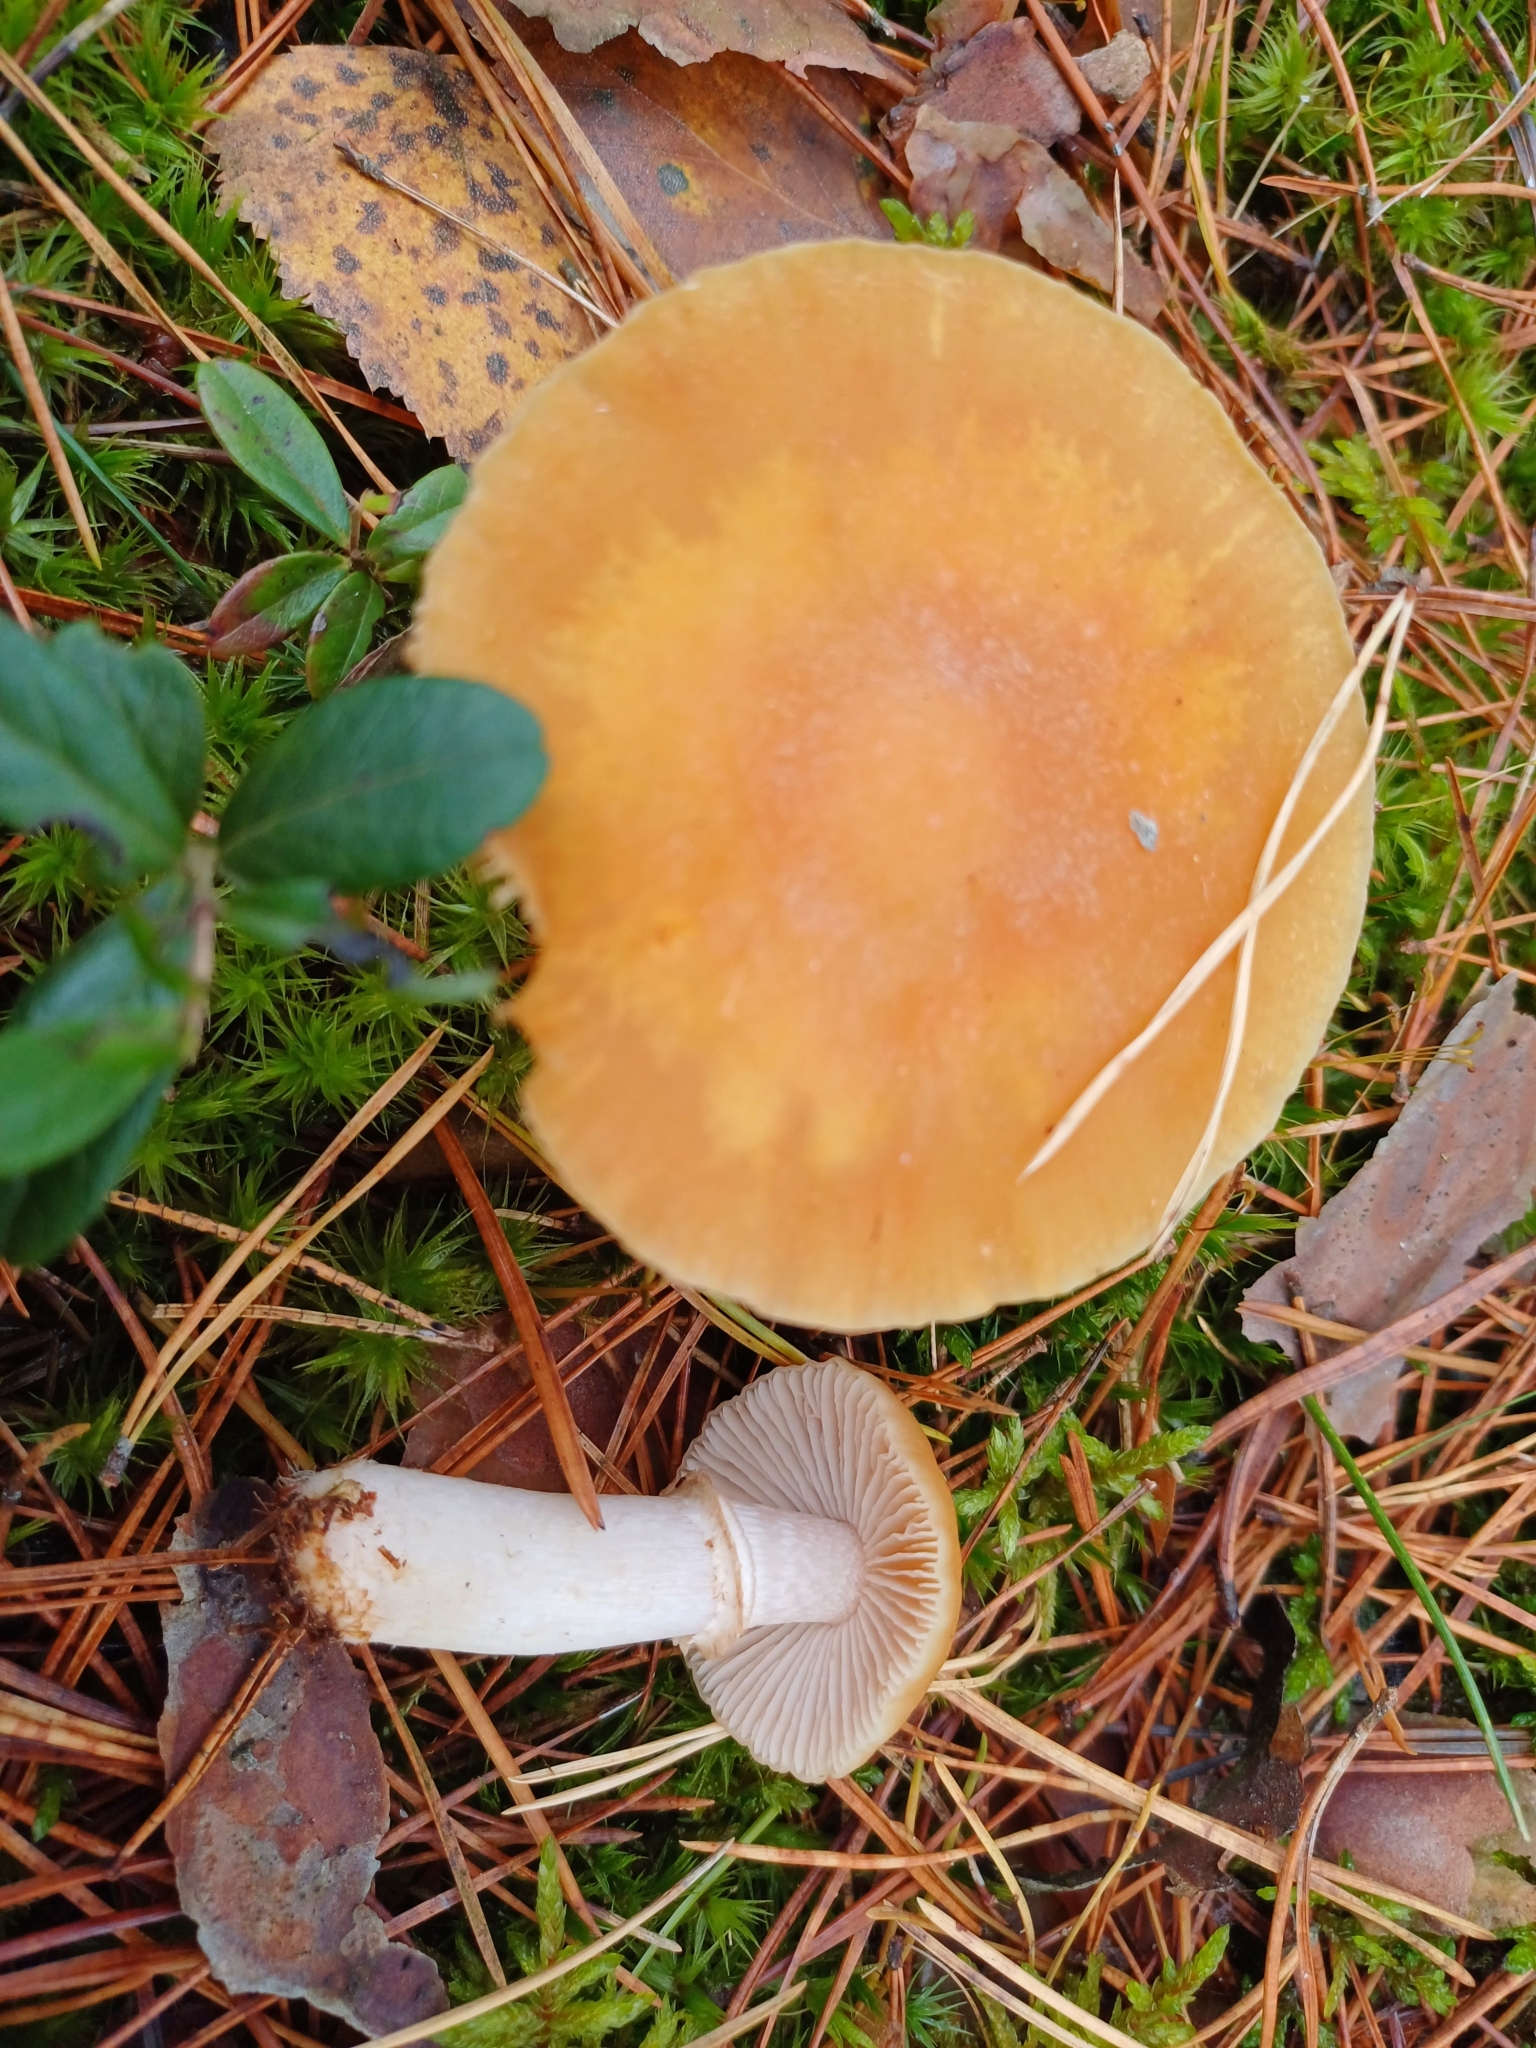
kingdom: Fungi
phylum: Basidiomycota
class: Agaricomycetes
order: Agaricales
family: Cortinariaceae
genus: Cortinarius
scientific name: Cortinarius caperatus
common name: The gypsy
